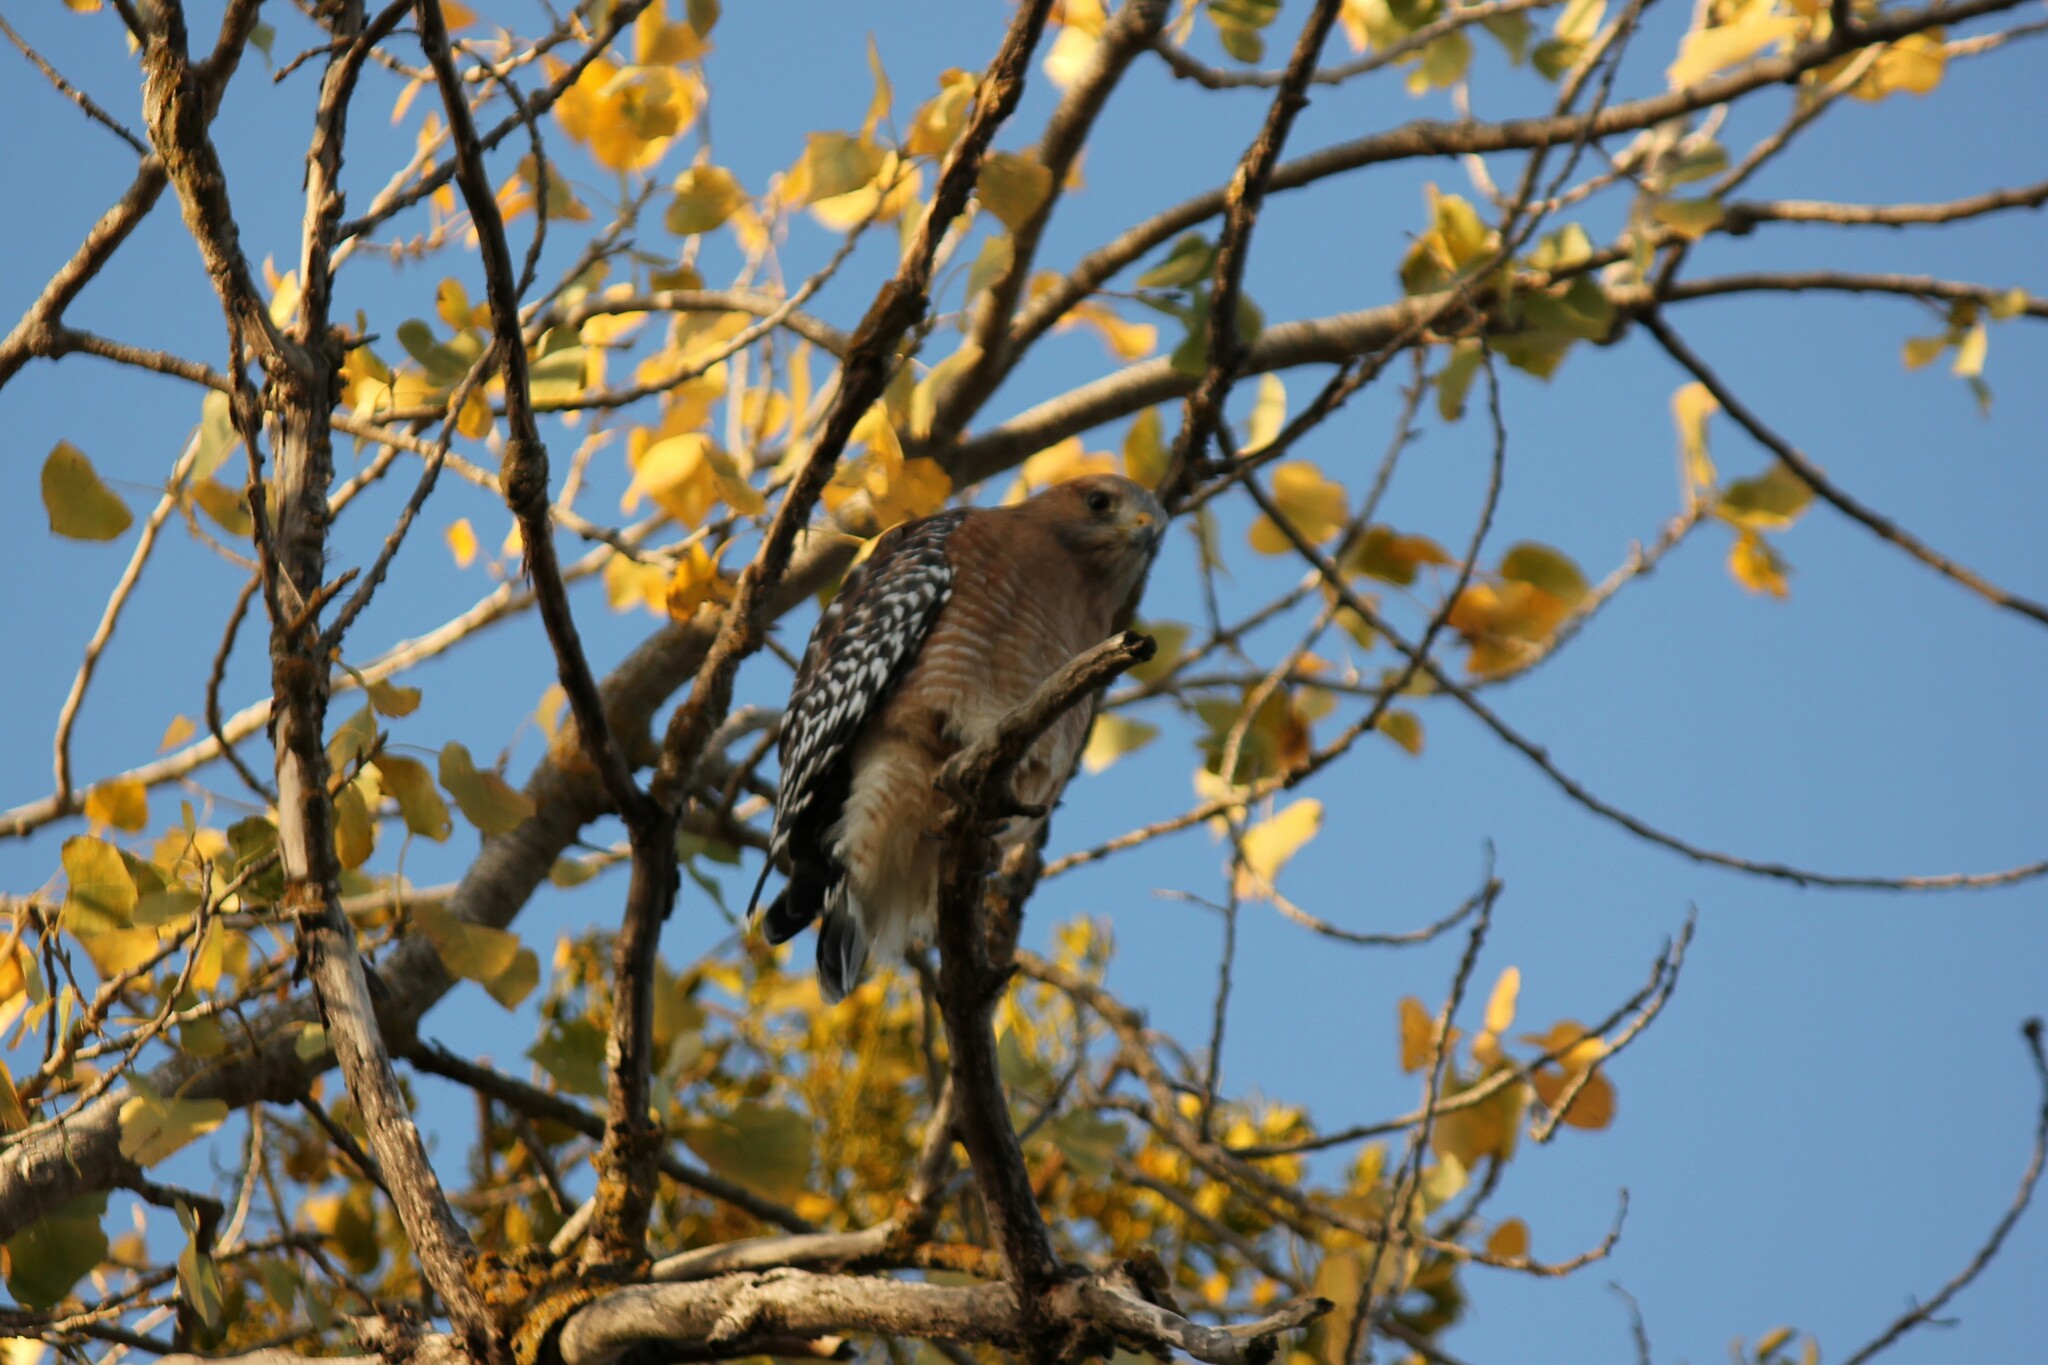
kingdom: Animalia
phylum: Chordata
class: Aves
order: Accipitriformes
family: Accipitridae
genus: Buteo
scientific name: Buteo lineatus
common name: Red-shouldered hawk
